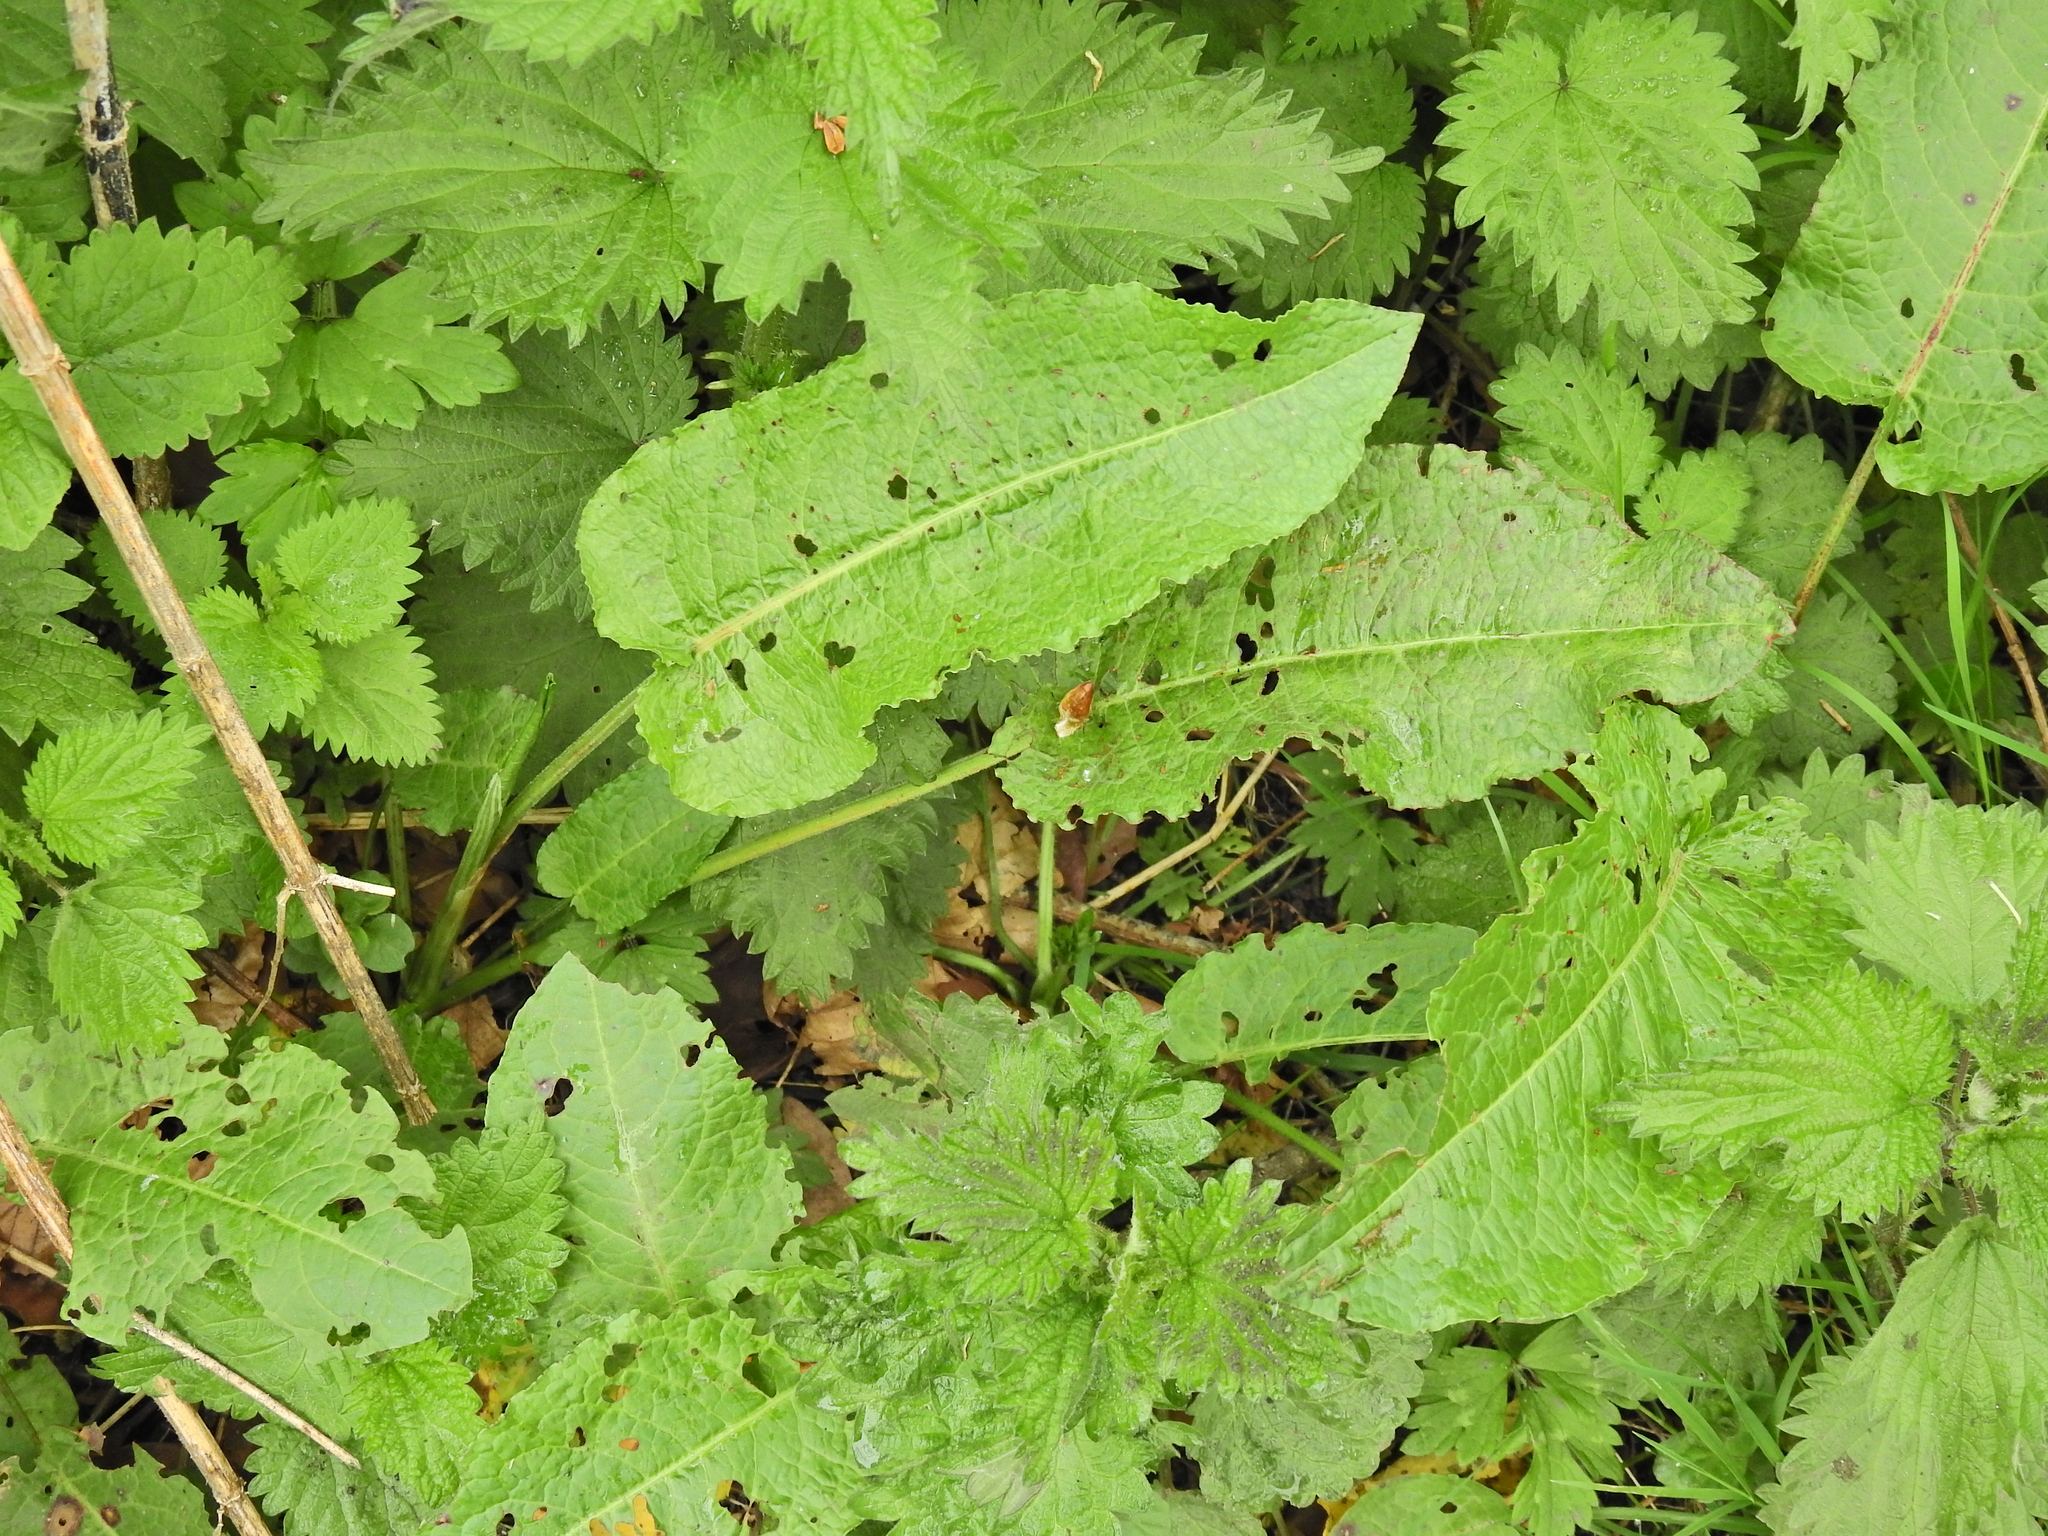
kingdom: Plantae
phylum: Tracheophyta
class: Magnoliopsida
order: Caryophyllales
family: Polygonaceae
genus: Rumex
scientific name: Rumex obtusifolius
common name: Bitter dock
